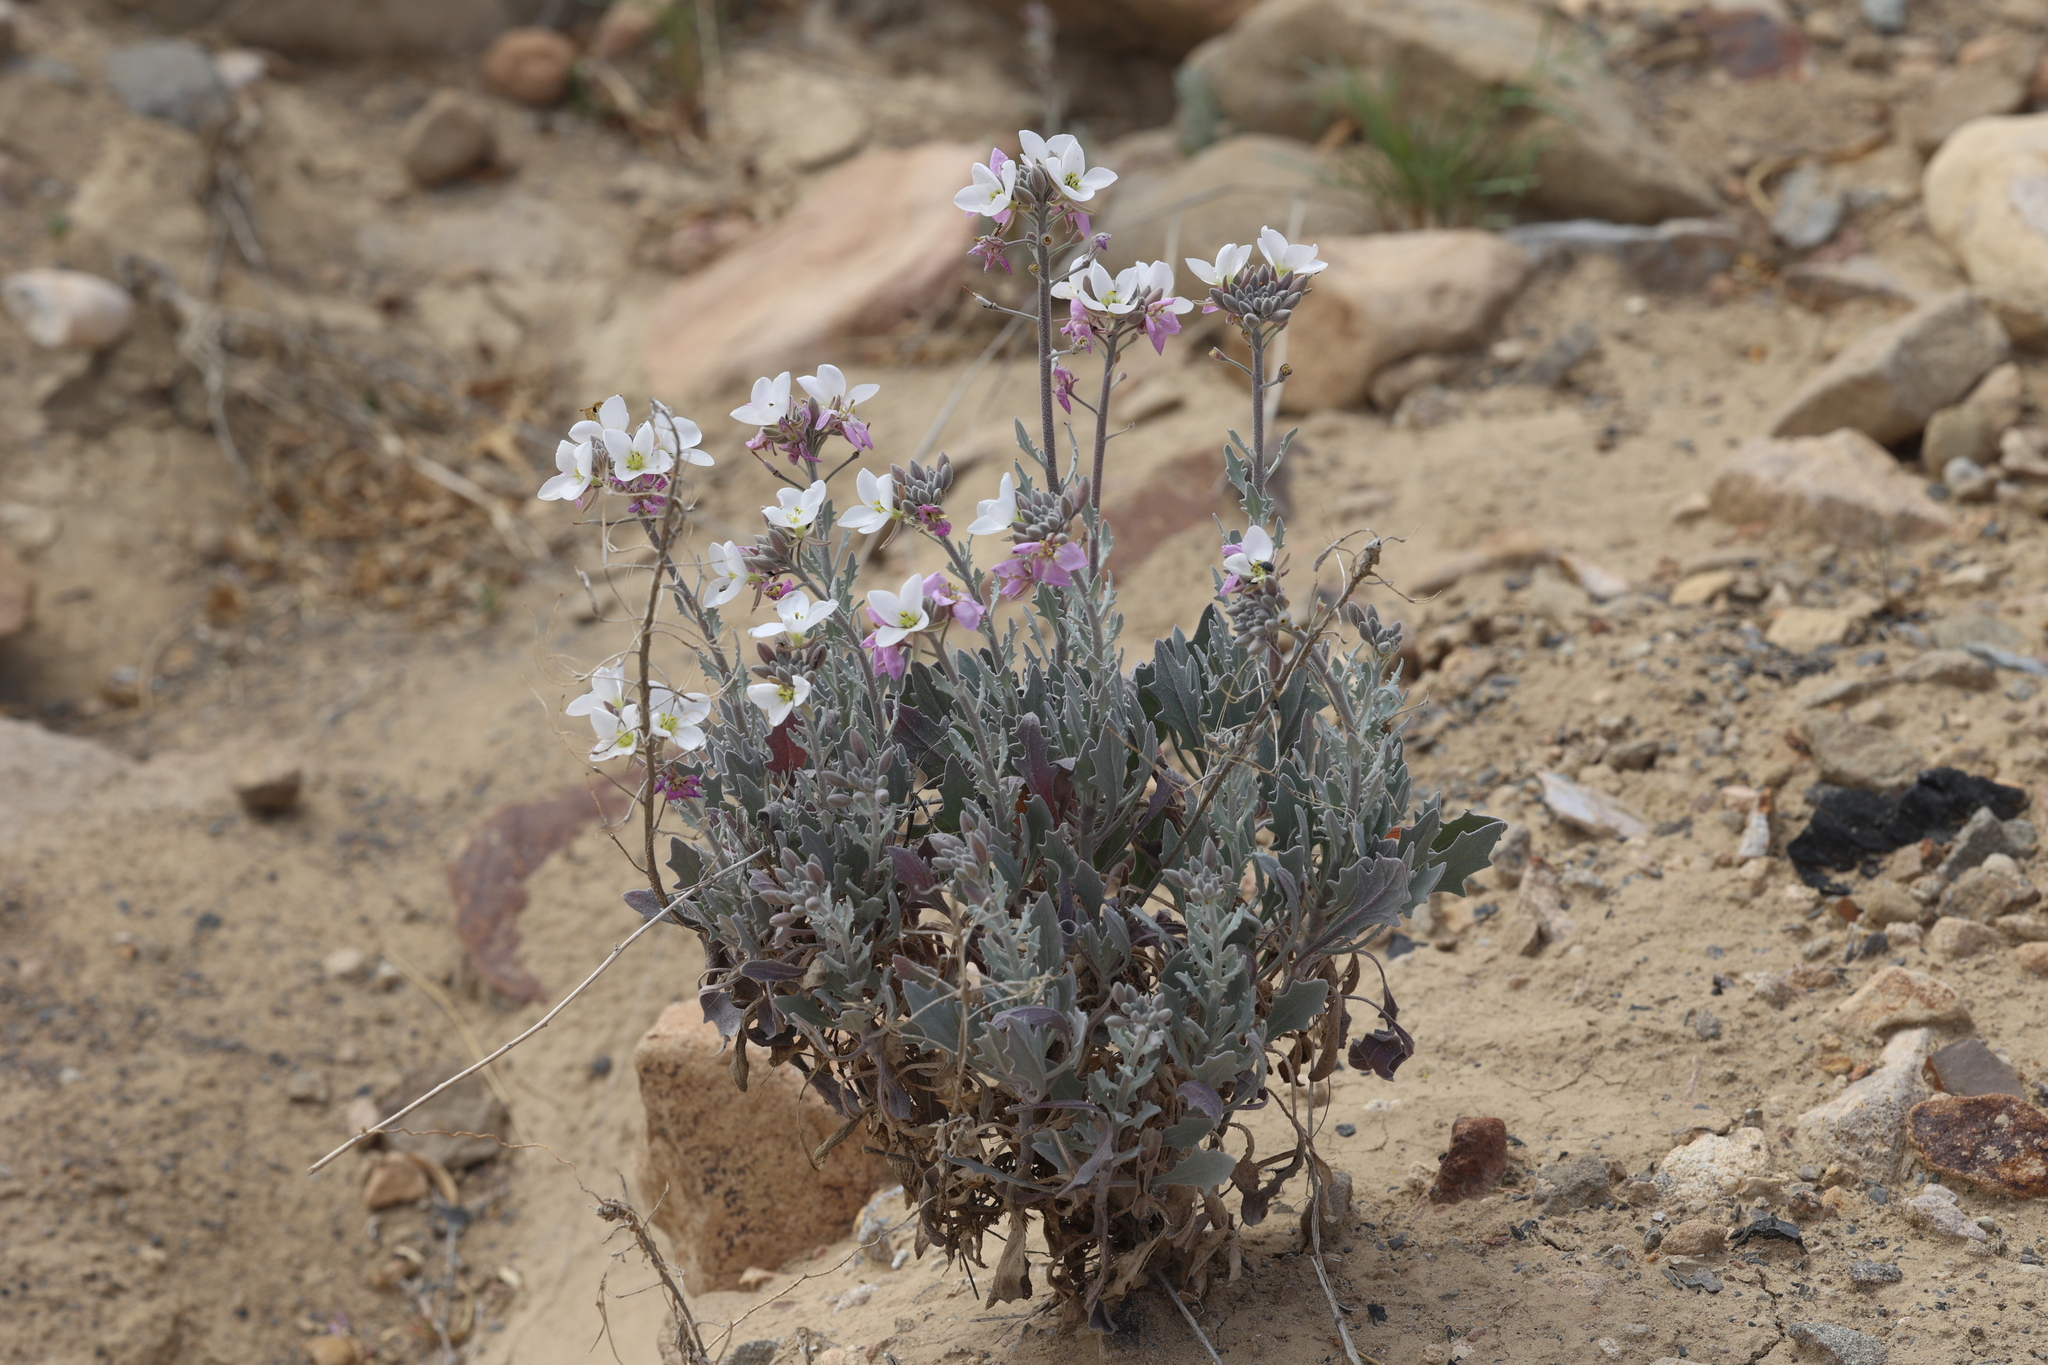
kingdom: Plantae
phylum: Tracheophyta
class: Magnoliopsida
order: Brassicales
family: Brassicaceae
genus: Nerisyrenia
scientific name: Nerisyrenia camporum
